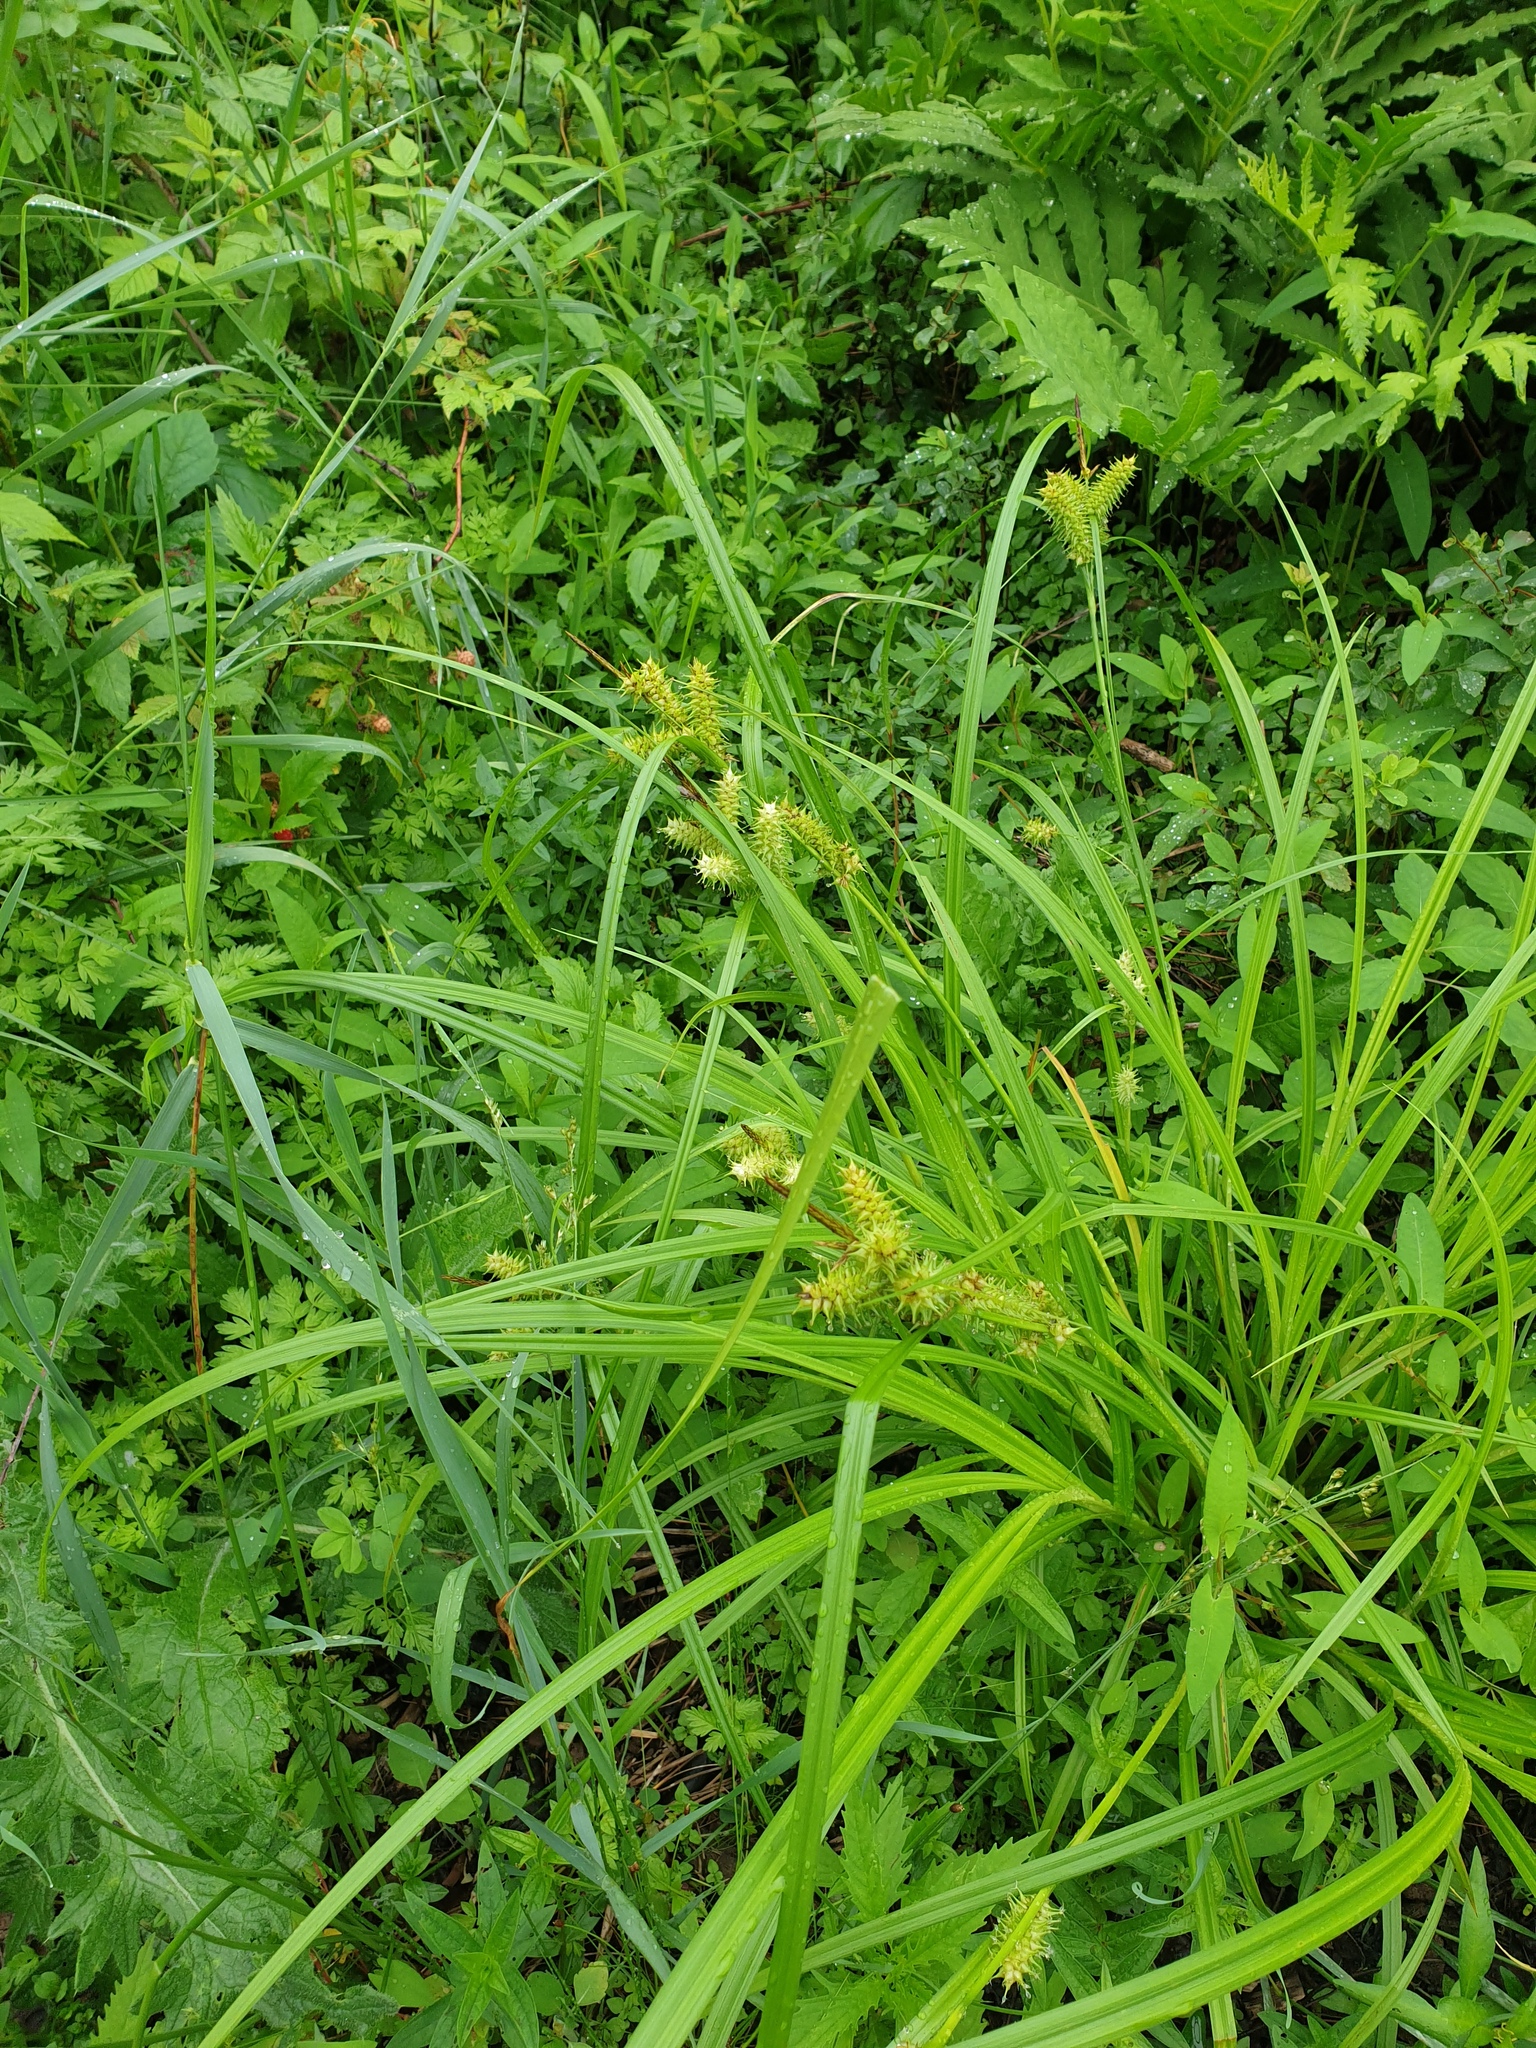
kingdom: Plantae
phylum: Tracheophyta
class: Liliopsida
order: Poales
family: Cyperaceae
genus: Carex
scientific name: Carex retrorsa
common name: Knot-sheath sedge
